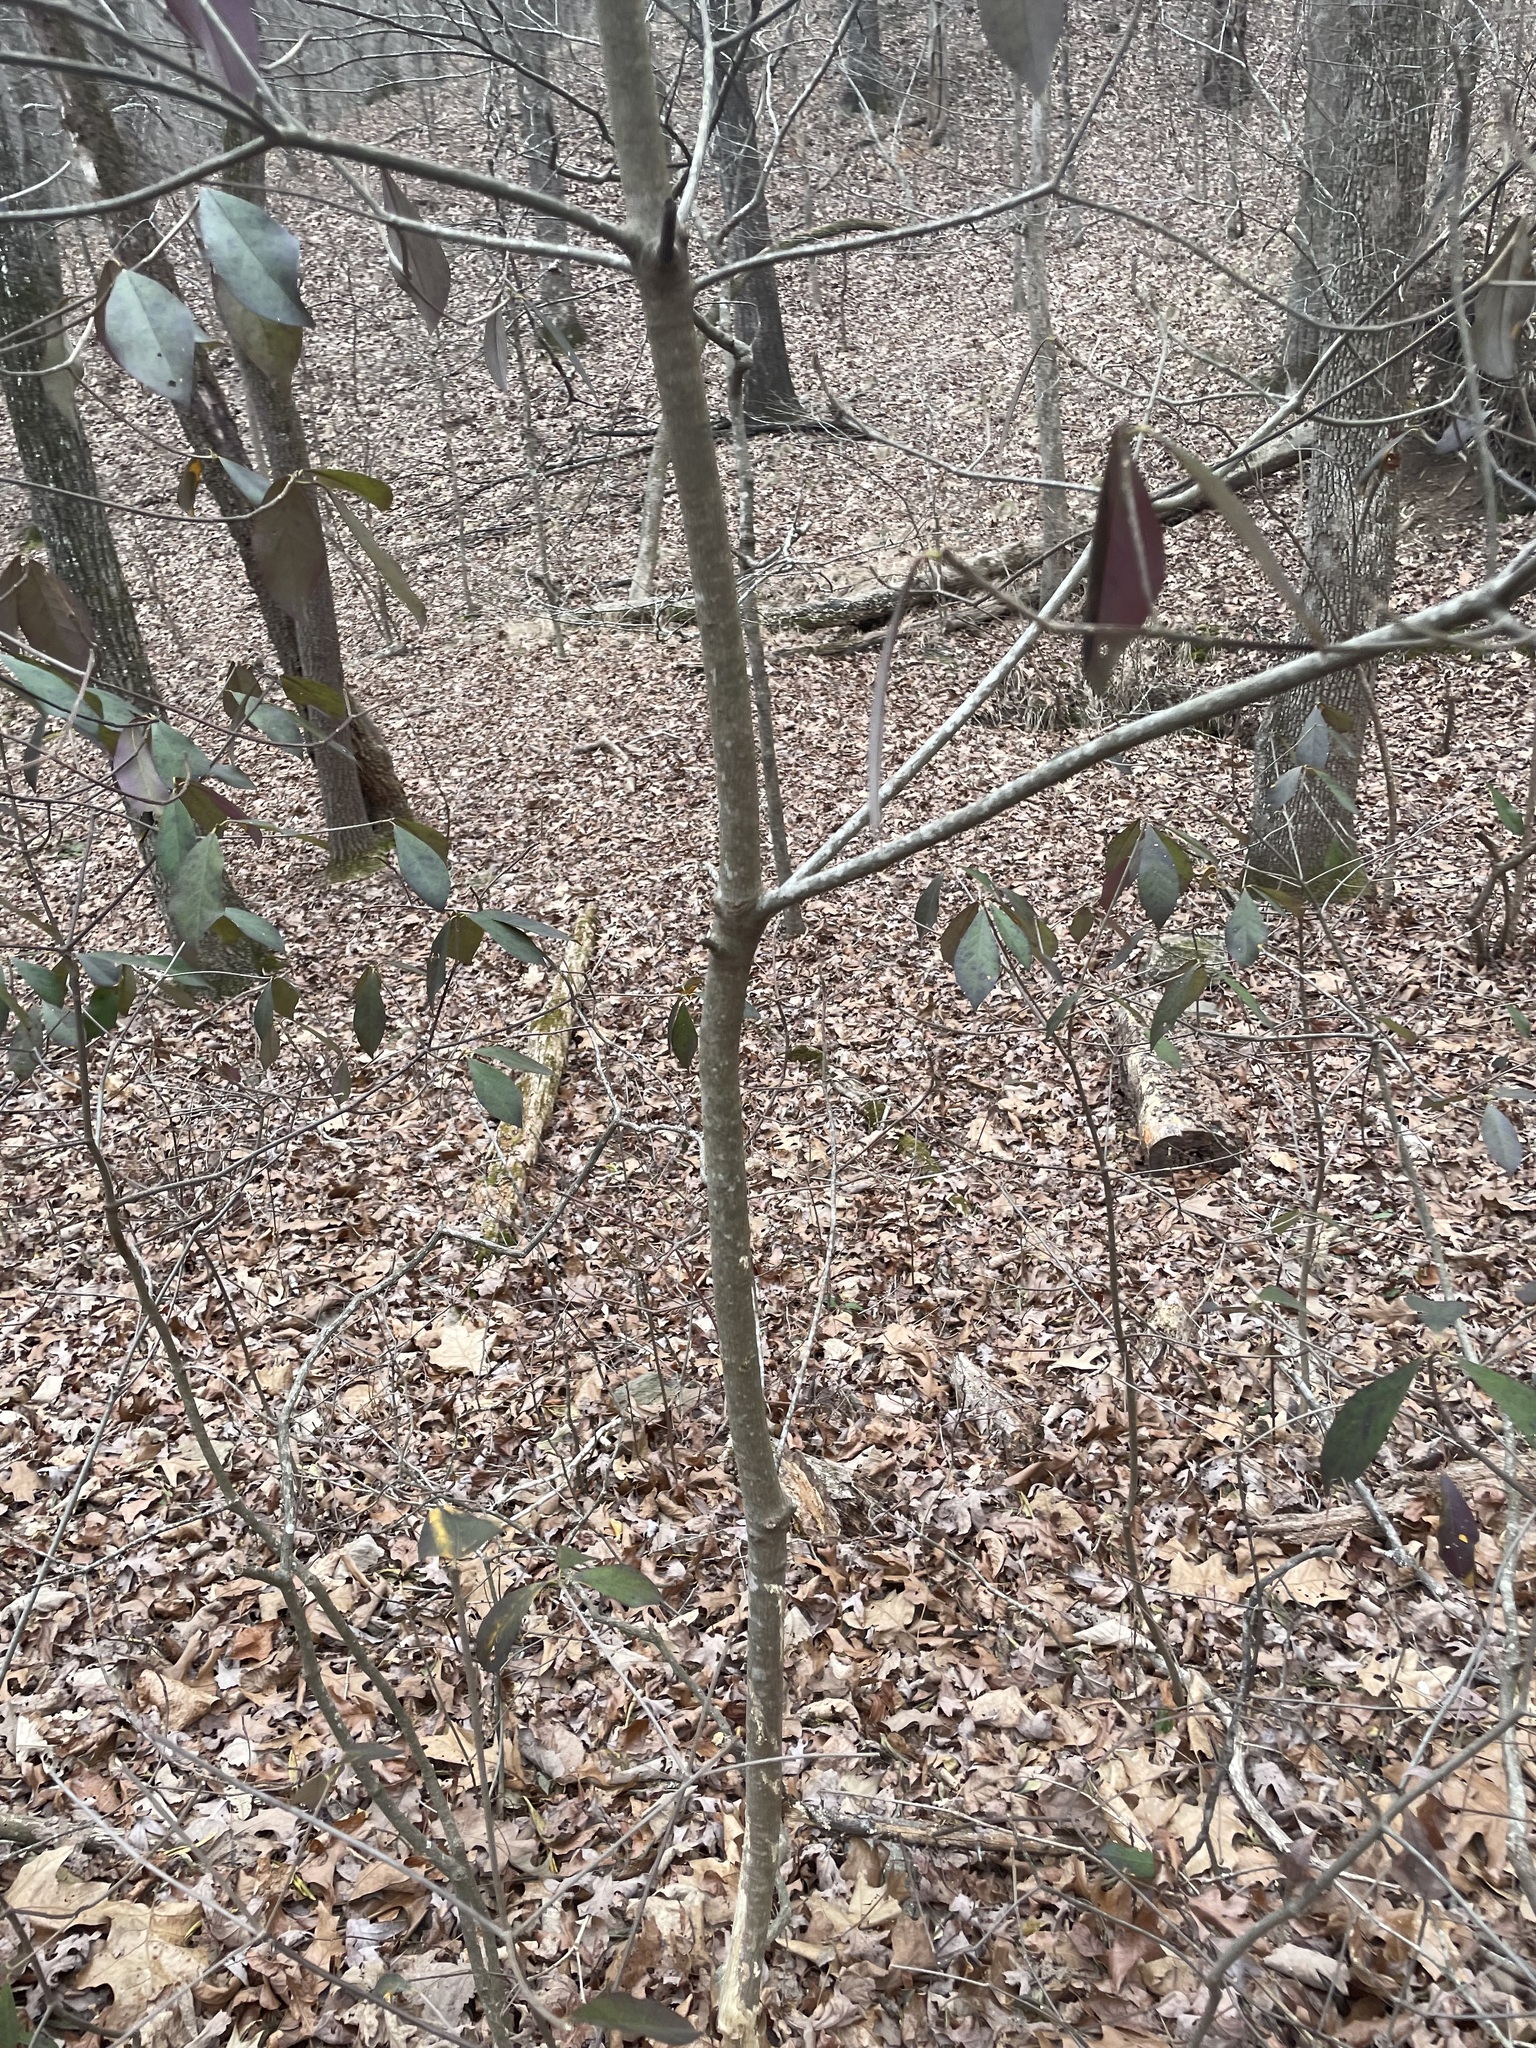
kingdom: Plantae
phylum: Tracheophyta
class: Magnoliopsida
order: Ericales
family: Symplocaceae
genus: Symplocos
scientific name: Symplocos tinctoria
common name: Horse-sugar
